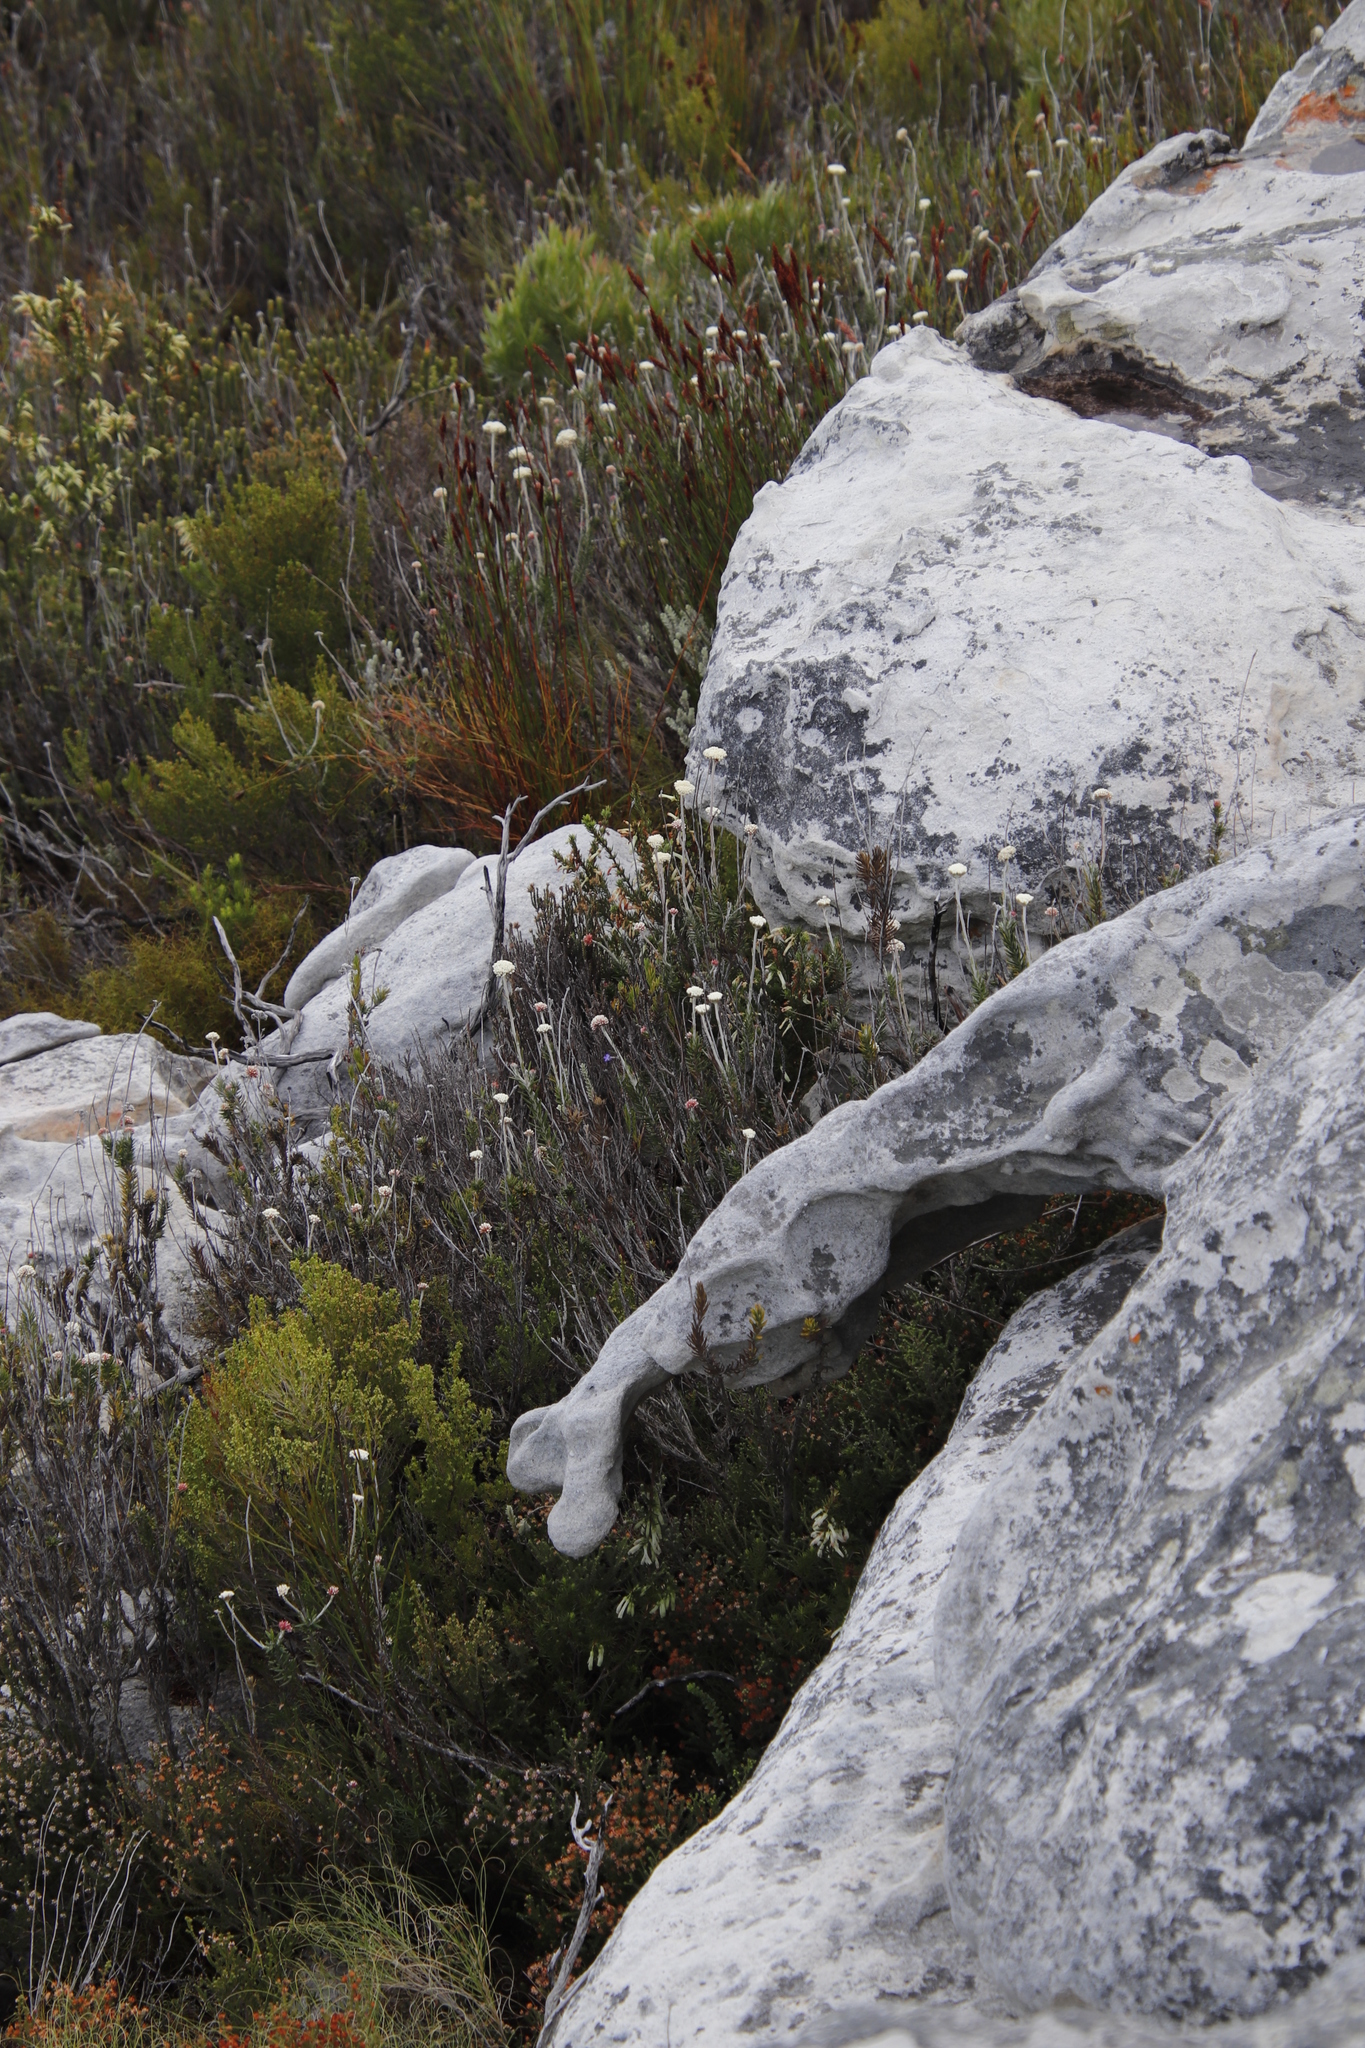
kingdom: Plantae
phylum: Tracheophyta
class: Magnoliopsida
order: Asterales
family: Asteraceae
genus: Anaxeton
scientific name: Anaxeton laeve
